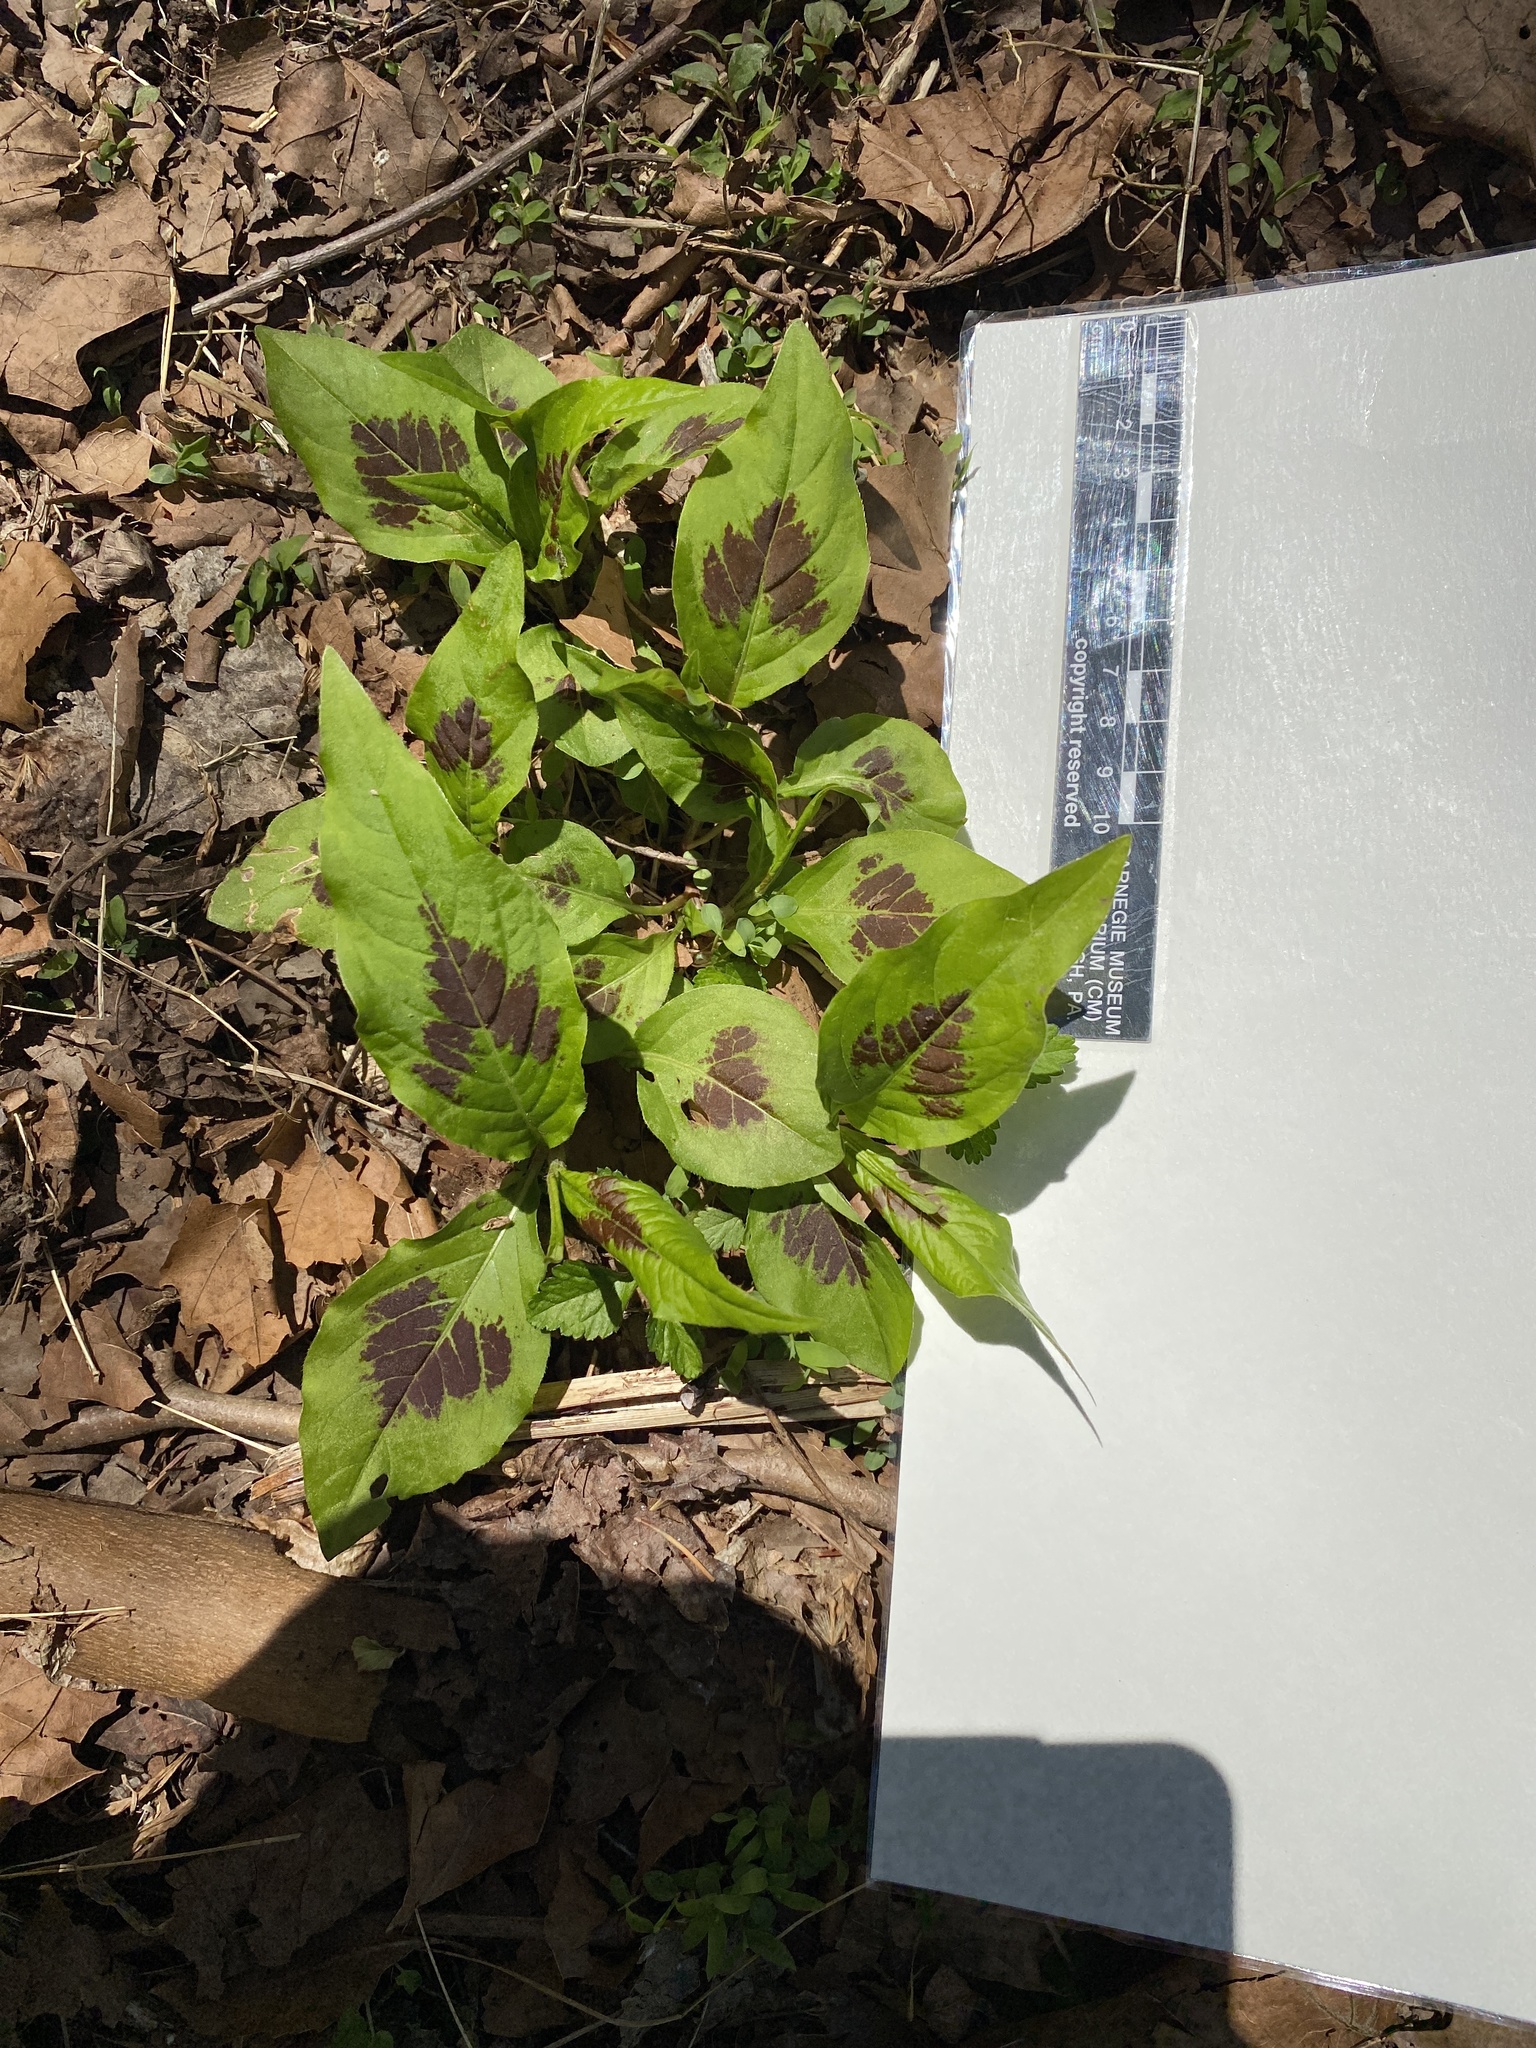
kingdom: Plantae
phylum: Tracheophyta
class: Magnoliopsida
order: Caryophyllales
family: Polygonaceae
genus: Persicaria
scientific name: Persicaria virginiana
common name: Jumpseed
